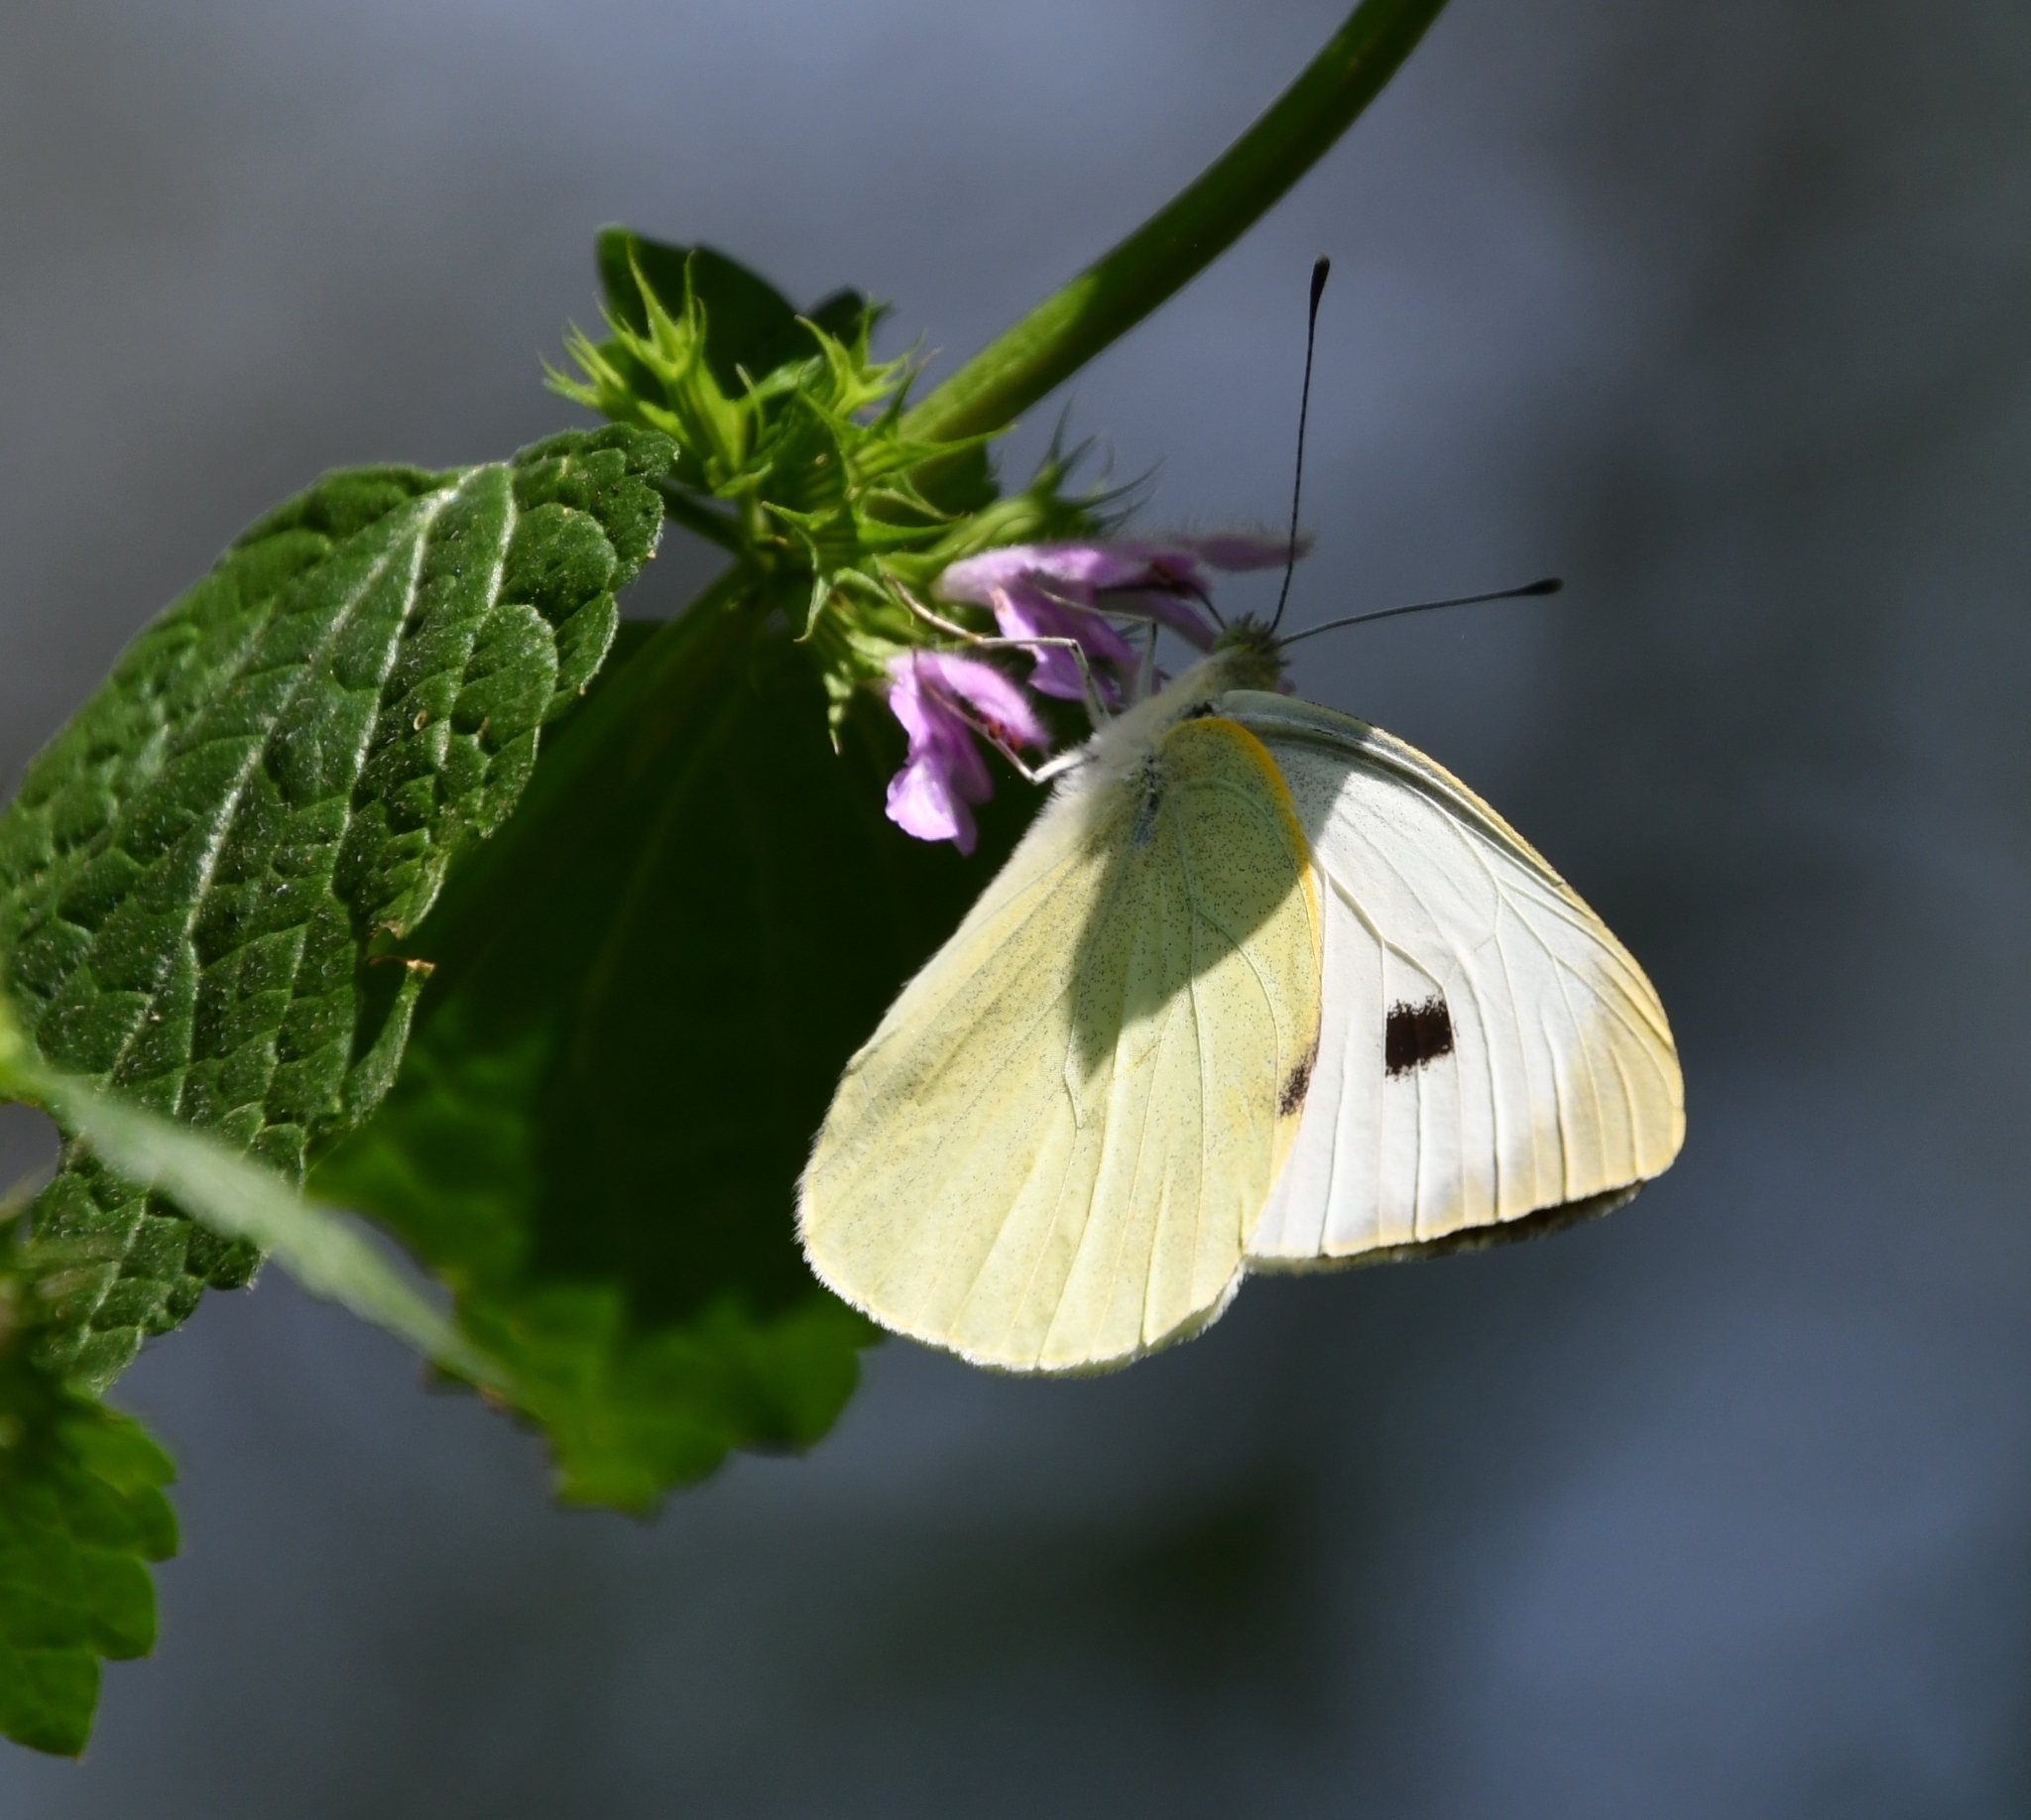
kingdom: Animalia
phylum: Arthropoda
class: Insecta
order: Lepidoptera
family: Pieridae
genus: Pieris
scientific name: Pieris brassicae
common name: Large white
